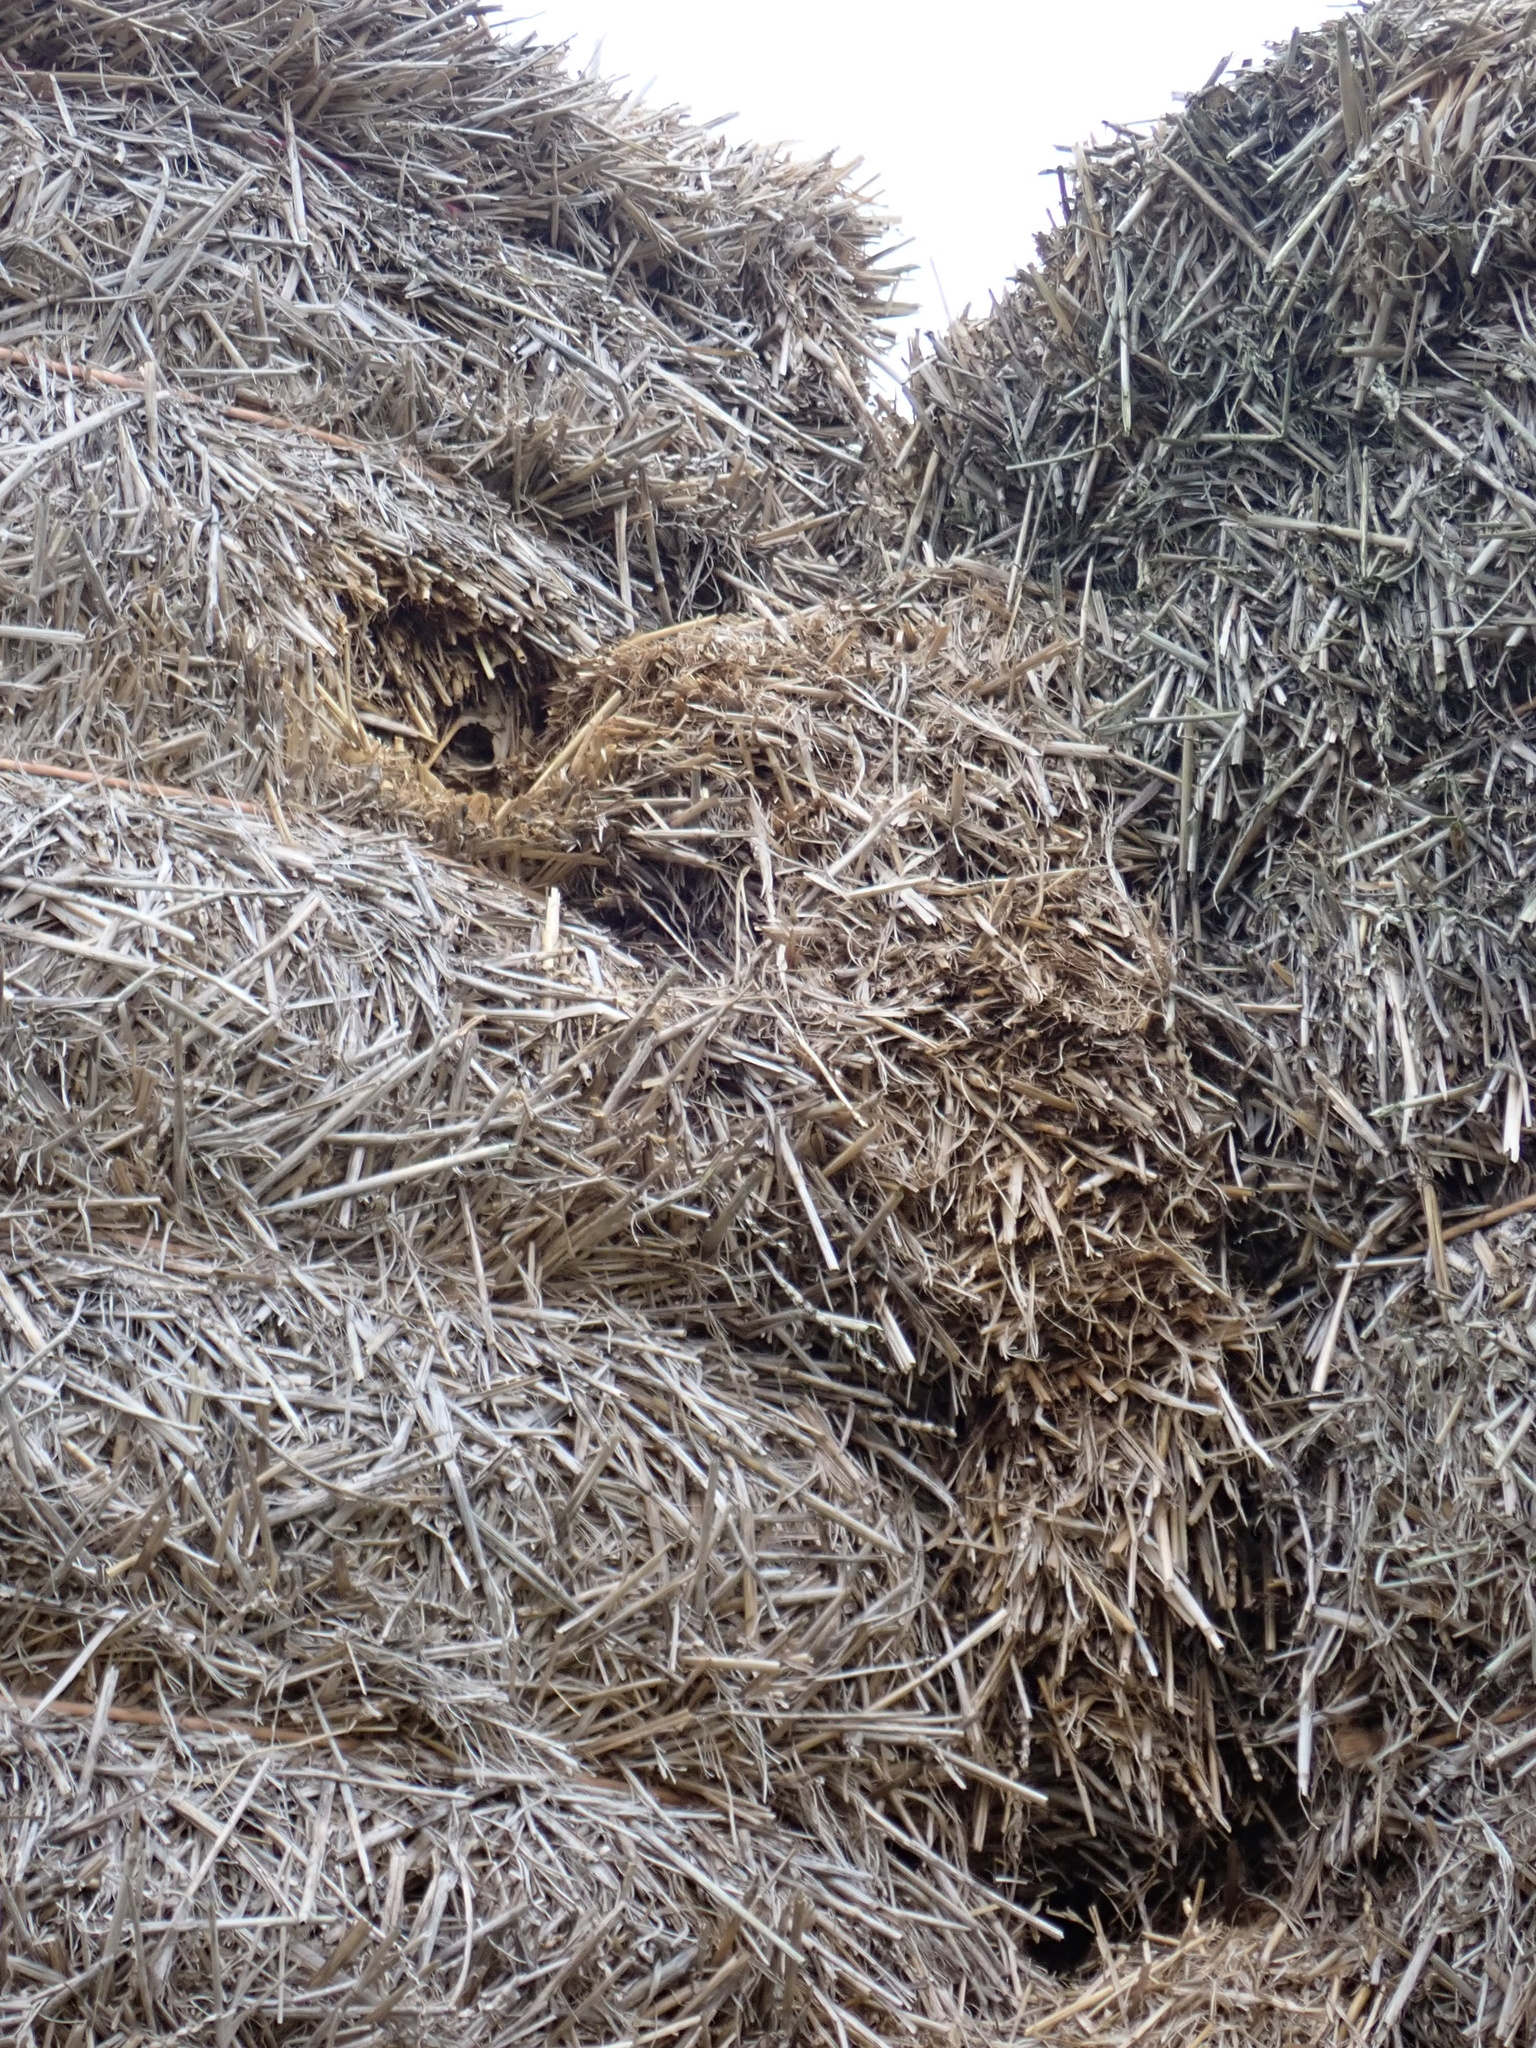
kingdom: Animalia
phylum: Arthropoda
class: Insecta
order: Hymenoptera
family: Vespidae
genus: Vespa
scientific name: Vespa crabro
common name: Hornet
